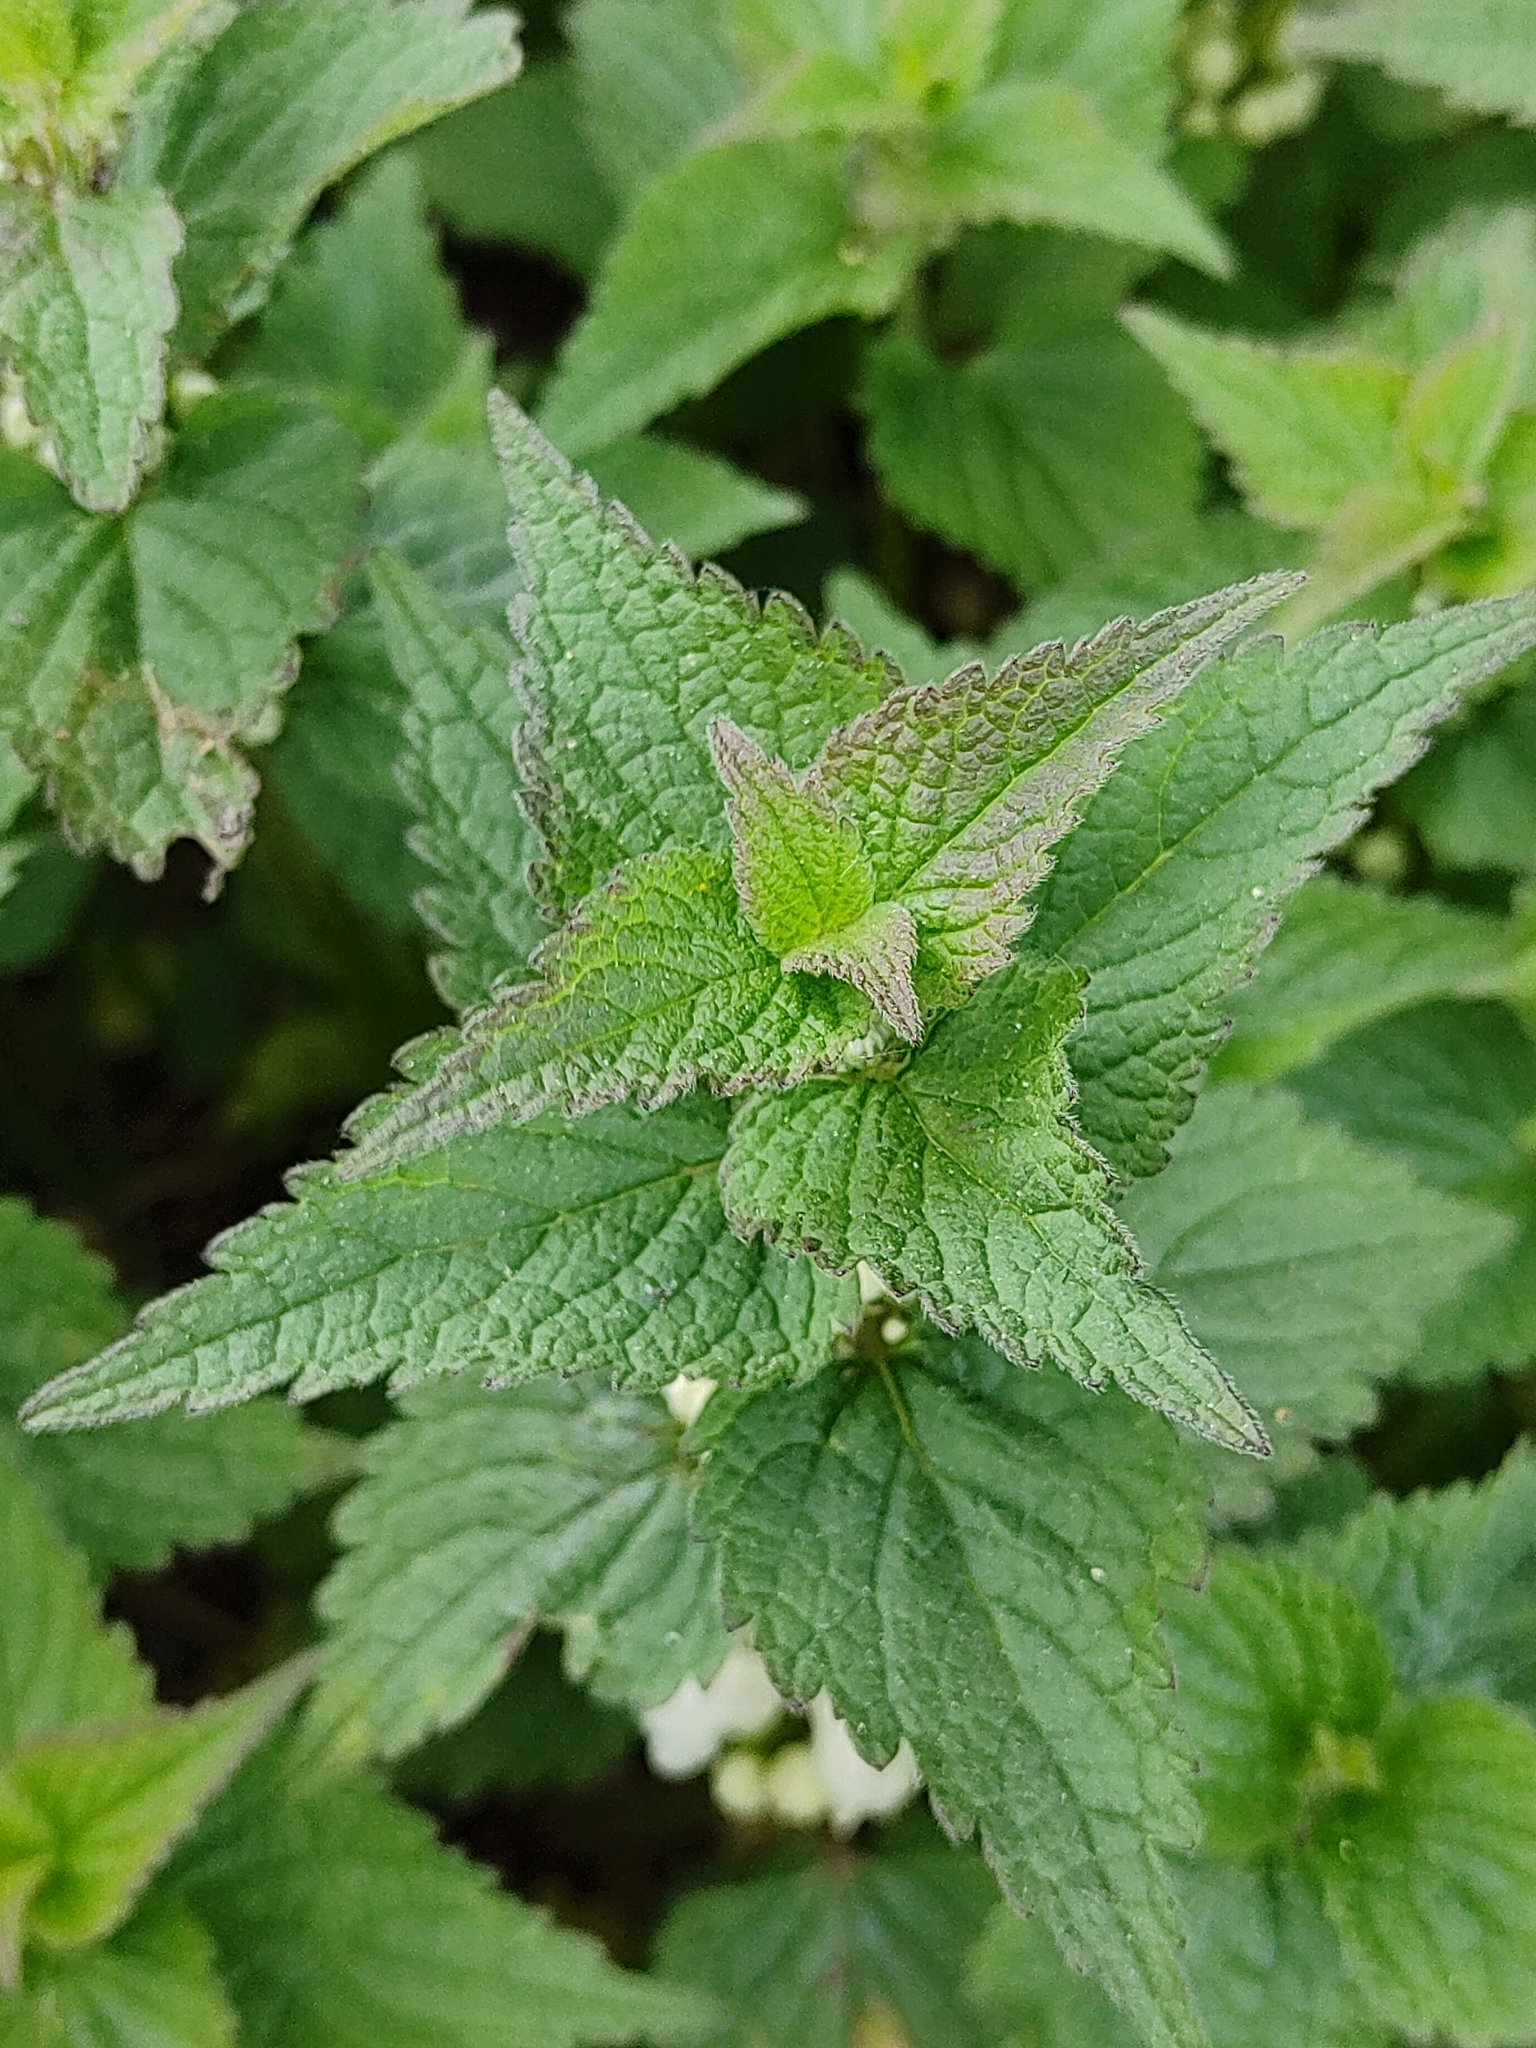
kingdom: Plantae
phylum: Tracheophyta
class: Magnoliopsida
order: Lamiales
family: Lamiaceae
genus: Lamium
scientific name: Lamium album
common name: White dead-nettle
